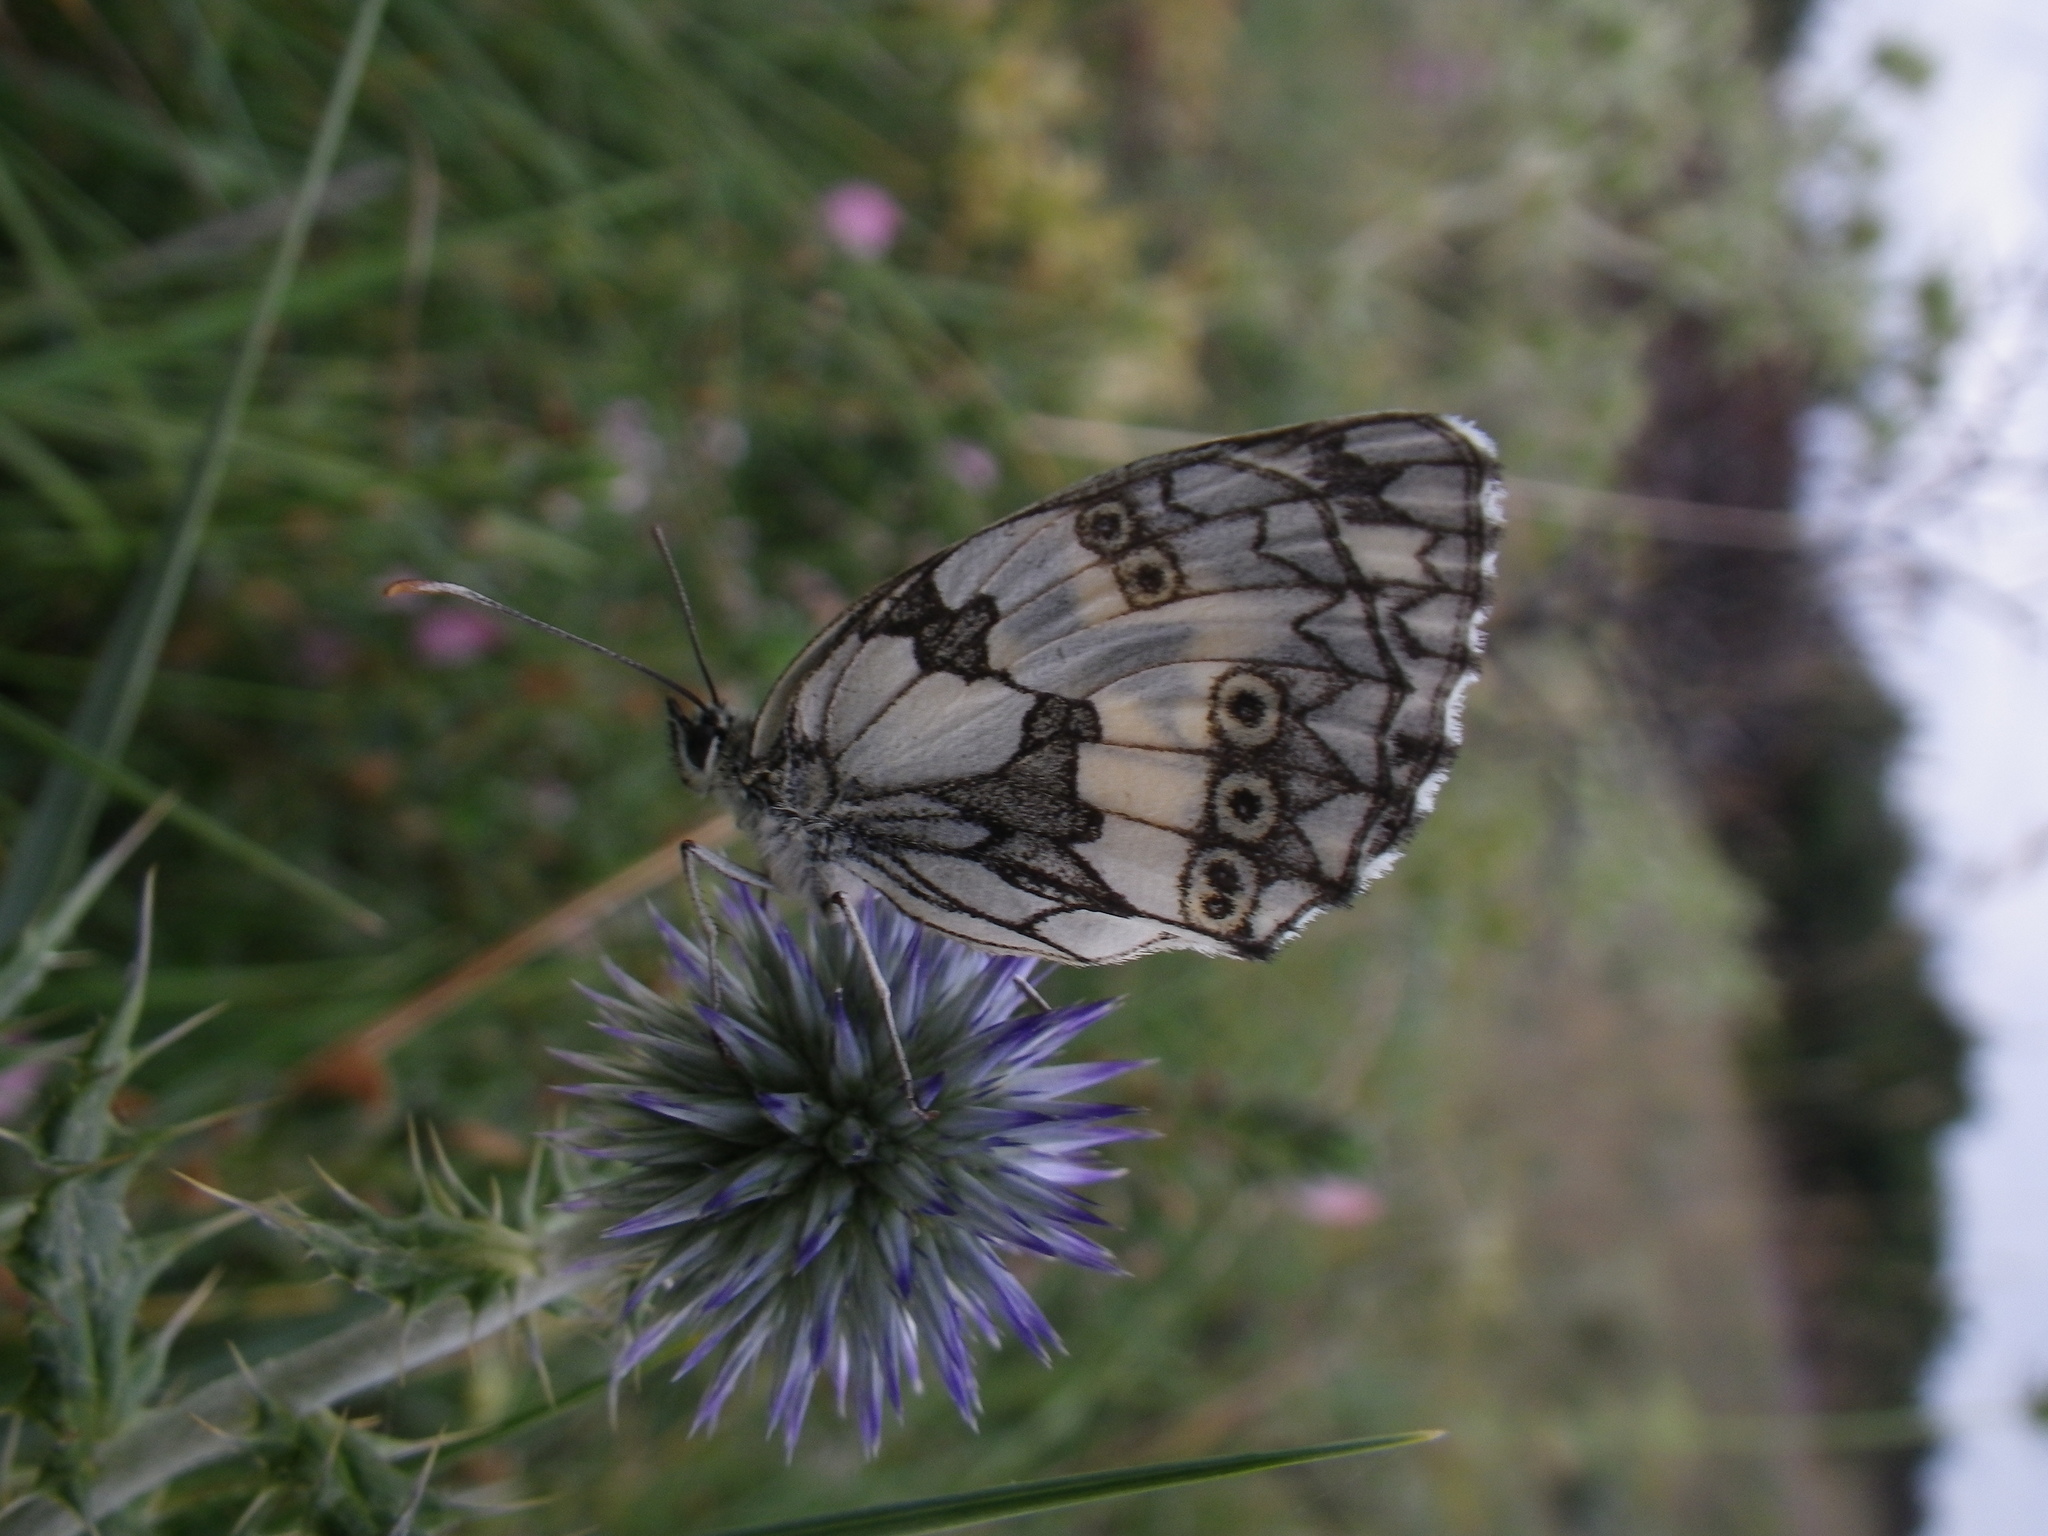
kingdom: Animalia
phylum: Arthropoda
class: Insecta
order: Lepidoptera
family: Nymphalidae
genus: Melanargia
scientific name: Melanargia galathea
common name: Marbled white
